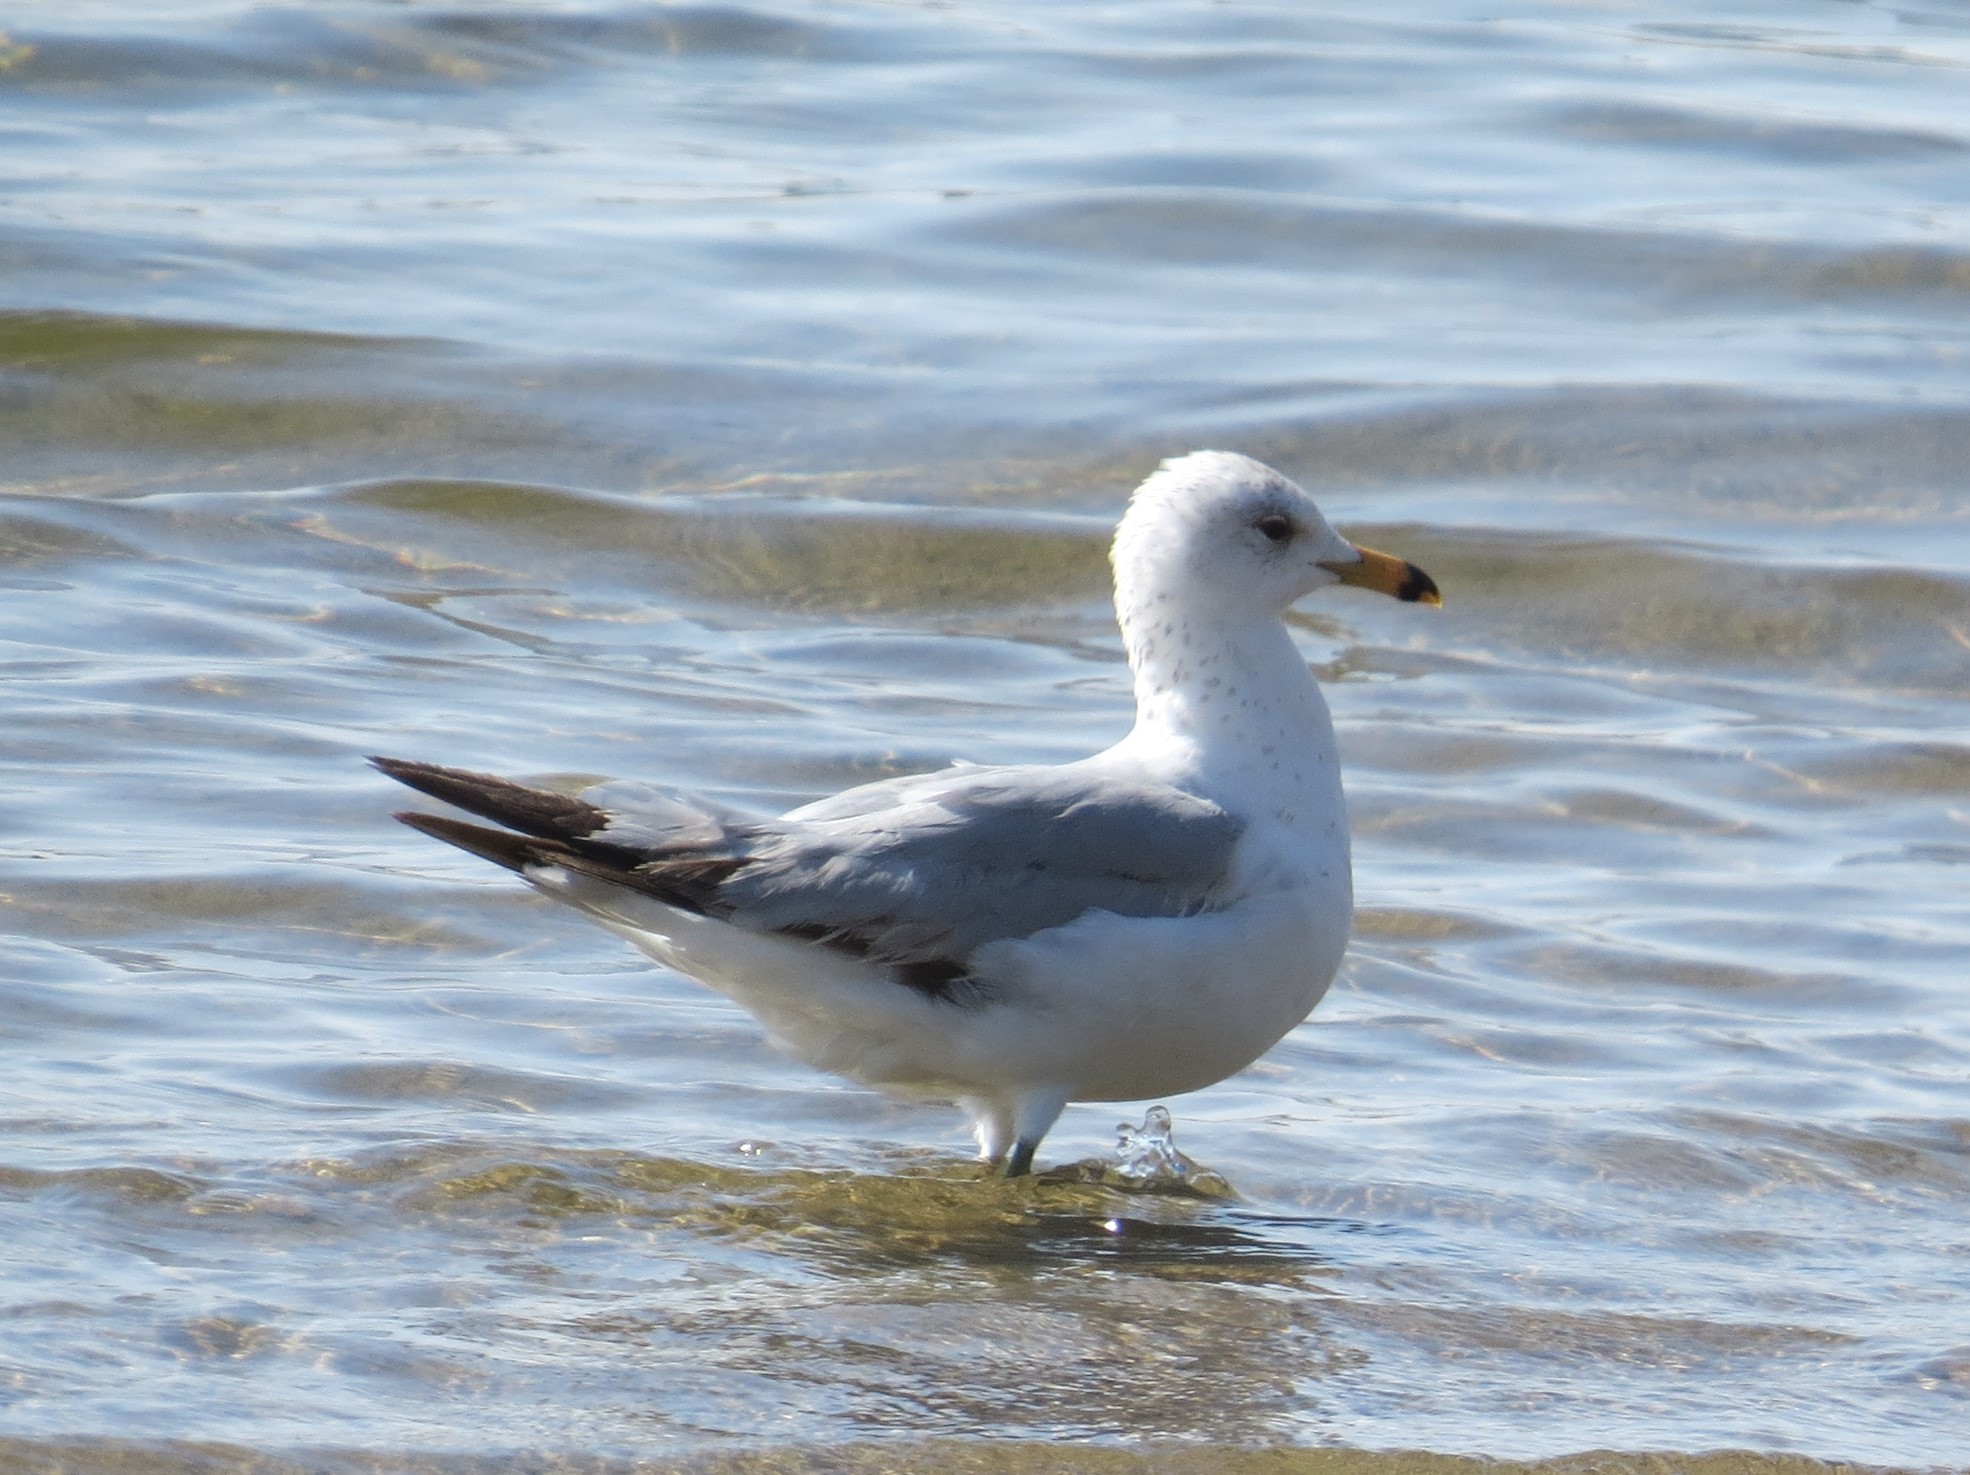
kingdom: Animalia
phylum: Chordata
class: Aves
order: Charadriiformes
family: Laridae
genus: Larus
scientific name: Larus delawarensis
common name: Ring-billed gull
